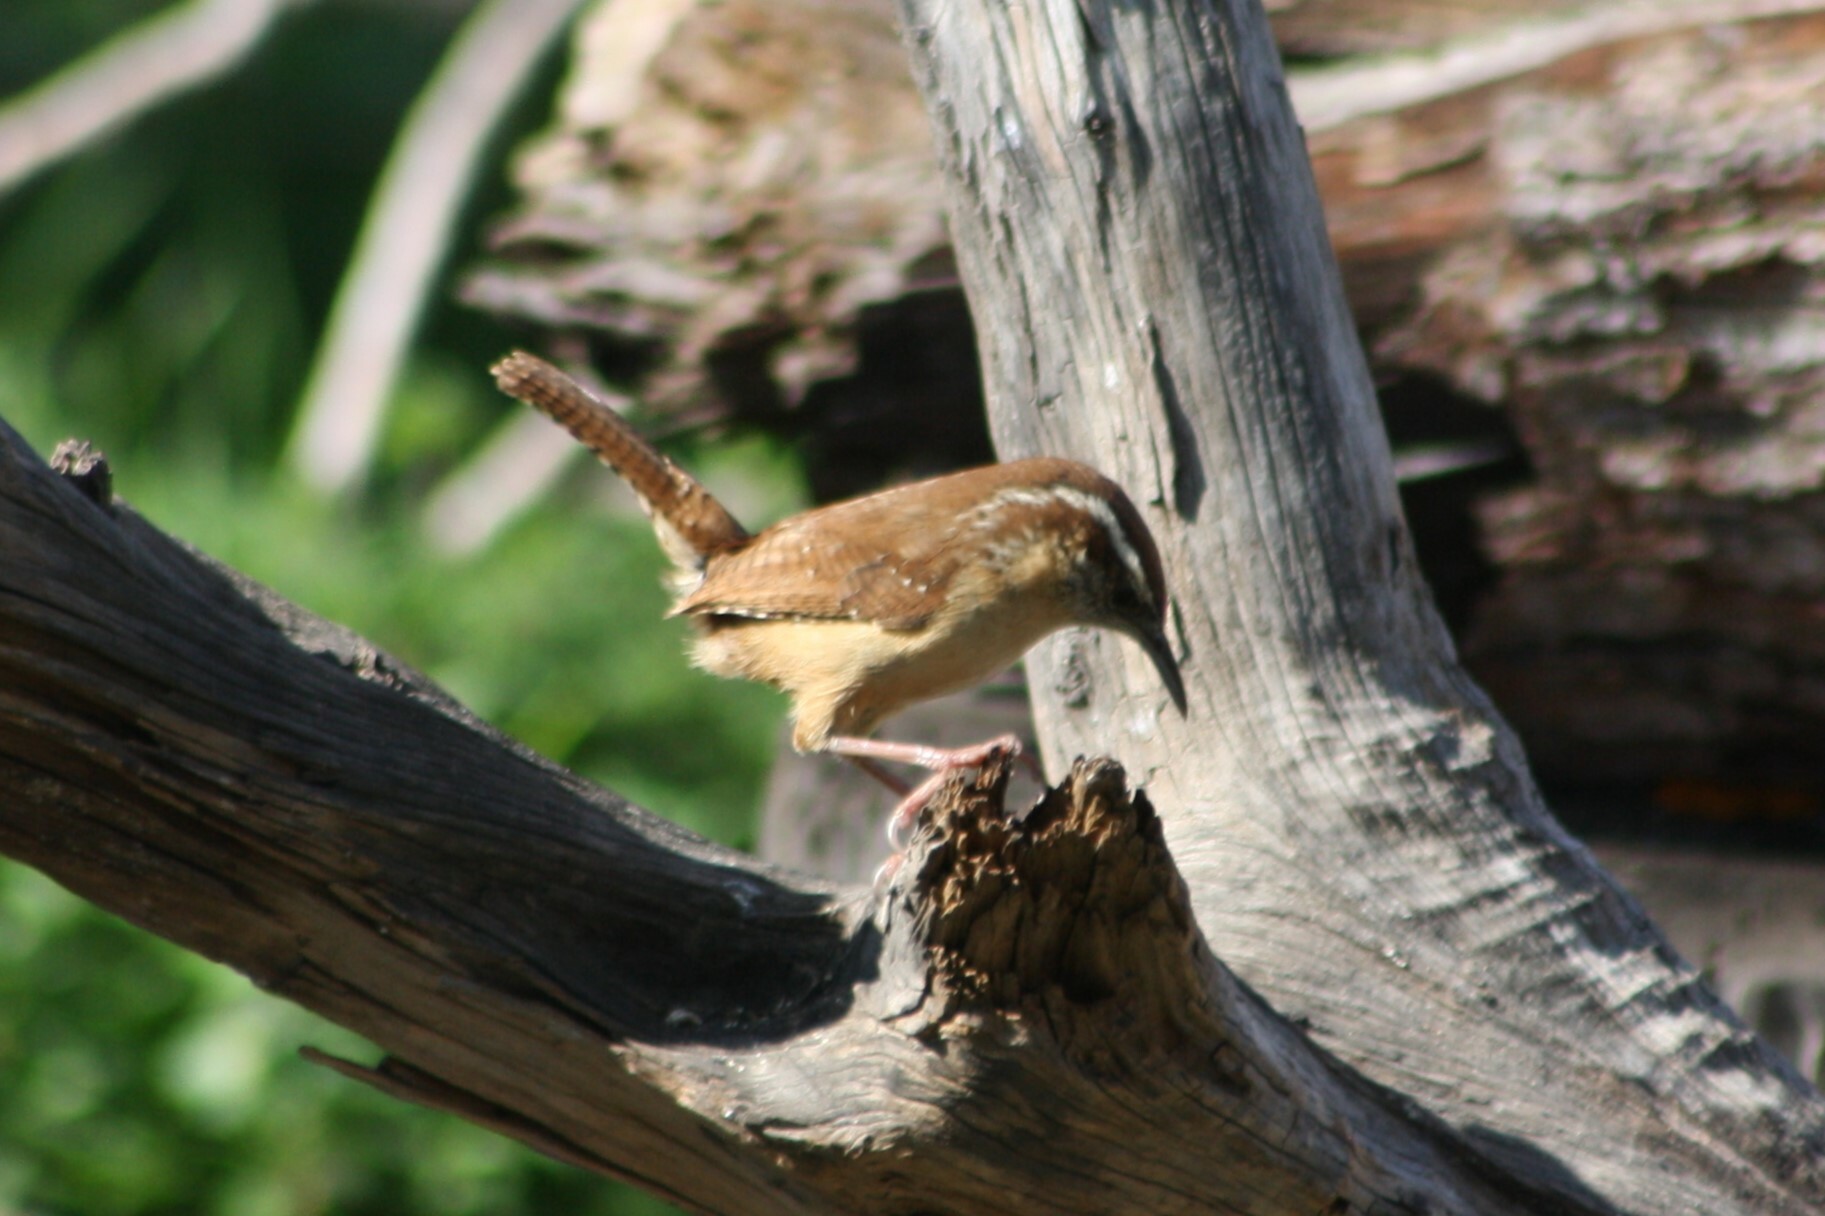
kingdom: Animalia
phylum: Chordata
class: Aves
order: Passeriformes
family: Troglodytidae
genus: Thryothorus
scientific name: Thryothorus ludovicianus
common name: Carolina wren
